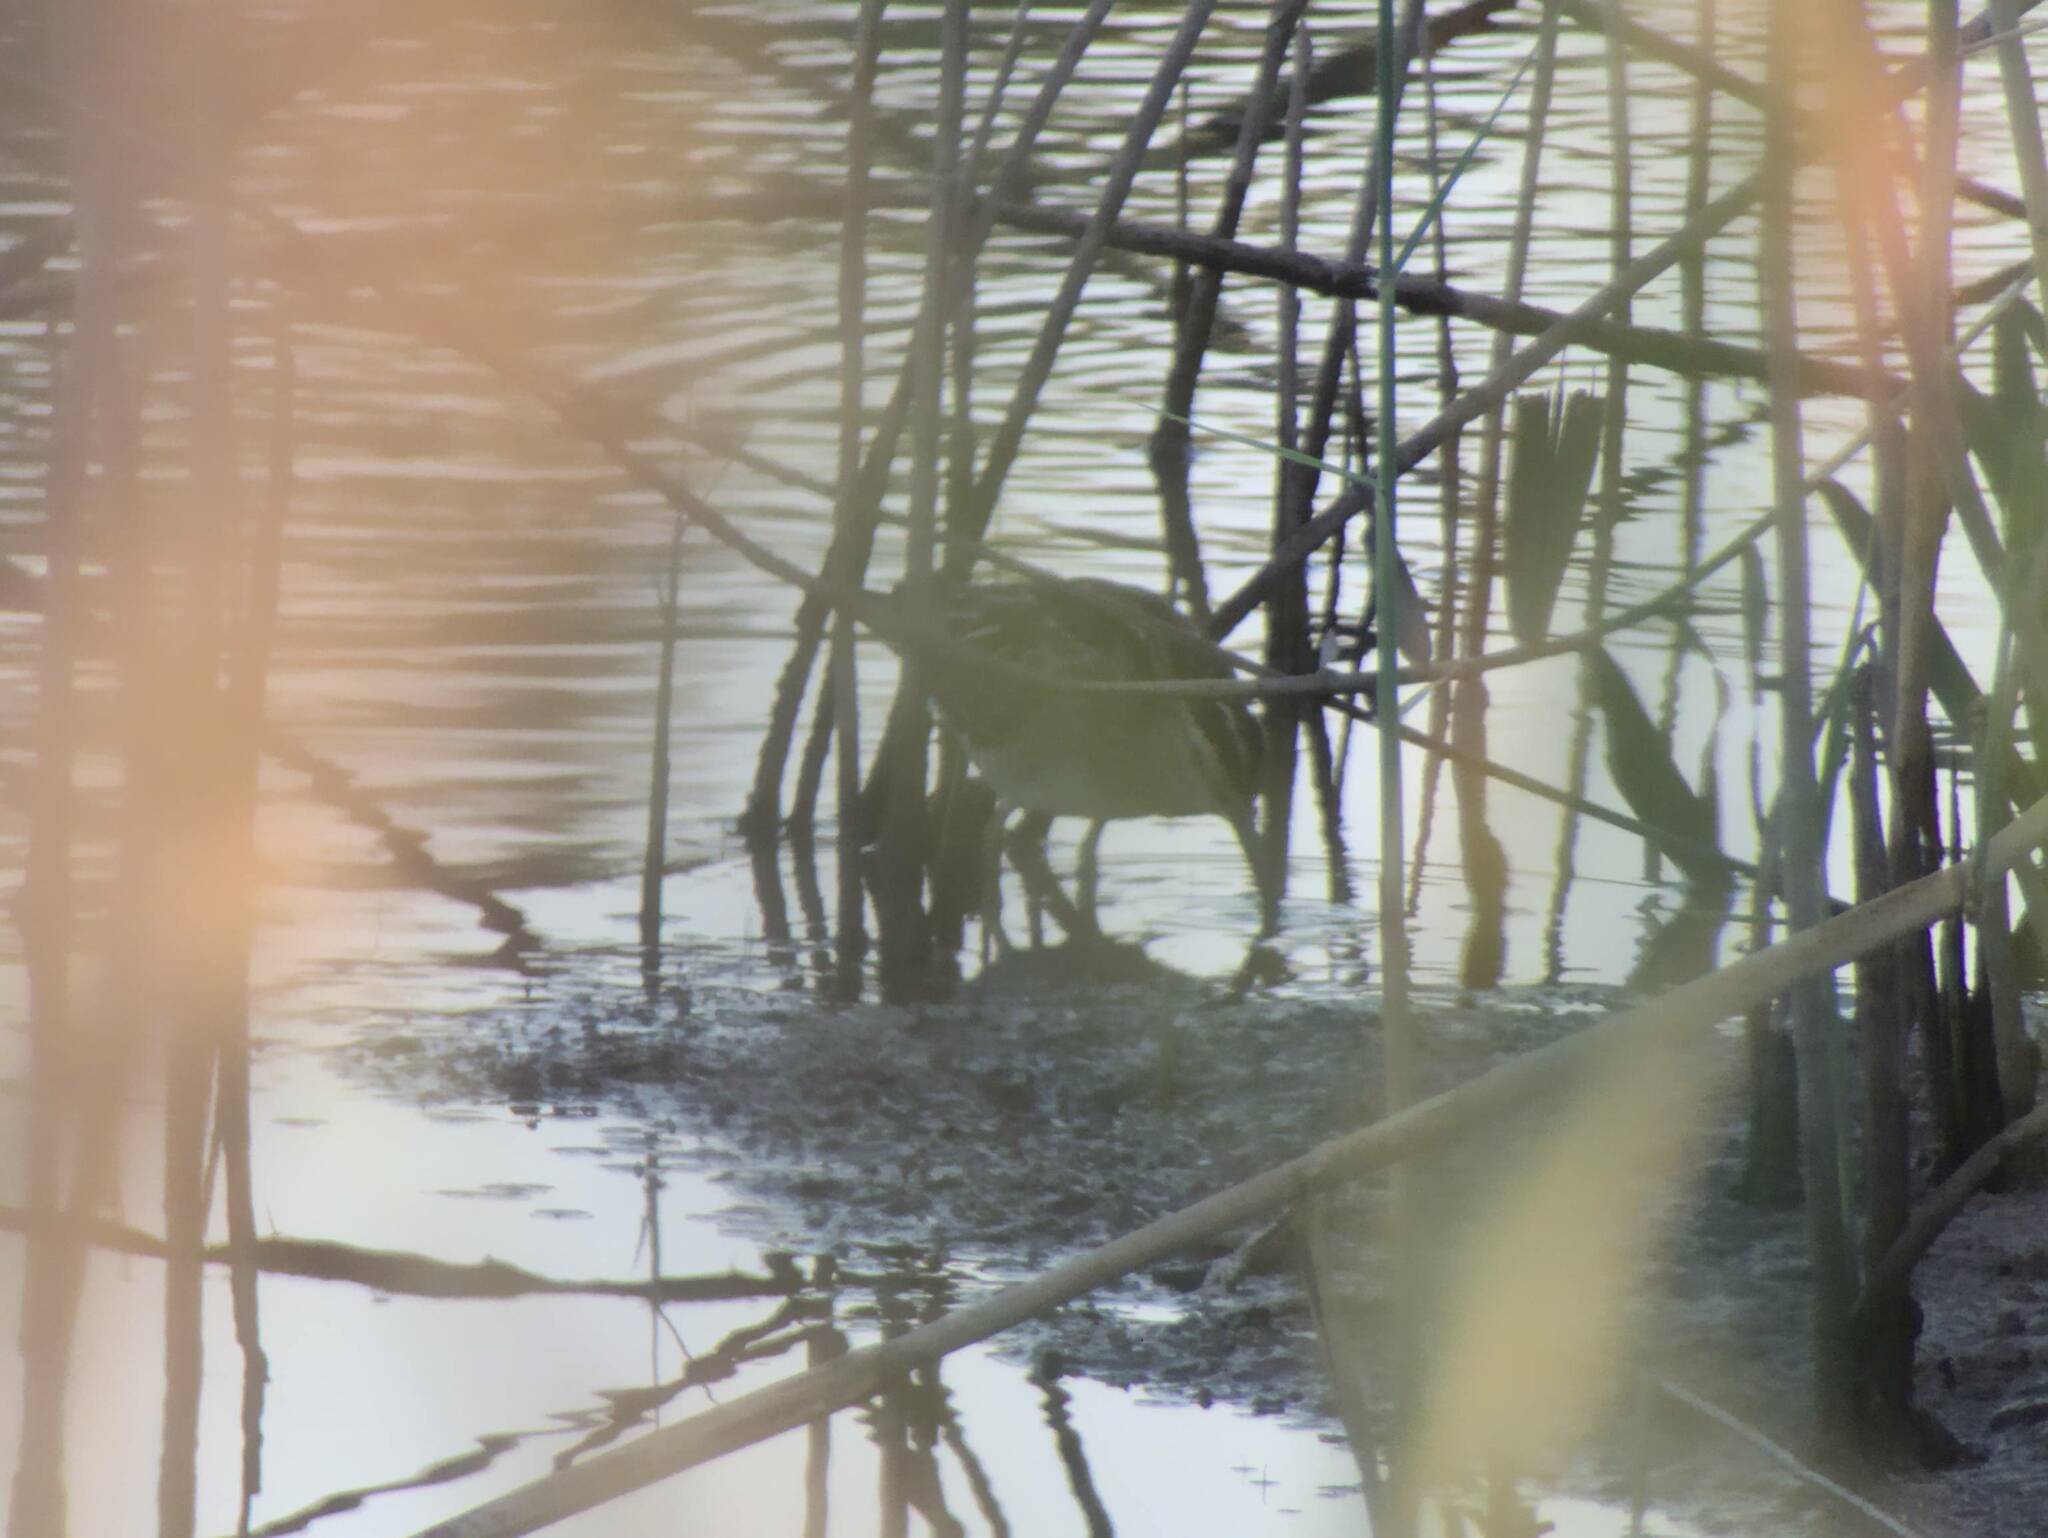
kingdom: Animalia
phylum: Chordata
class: Aves
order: Charadriiformes
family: Scolopacidae
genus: Gallinago
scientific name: Gallinago gallinago
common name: Common snipe
